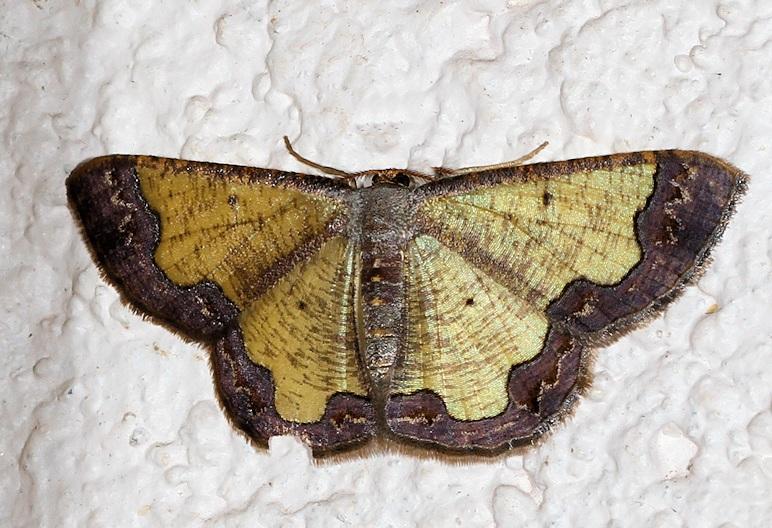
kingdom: Animalia
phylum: Arthropoda
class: Insecta
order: Lepidoptera
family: Geometridae
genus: Zamarada
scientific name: Zamarada varii
